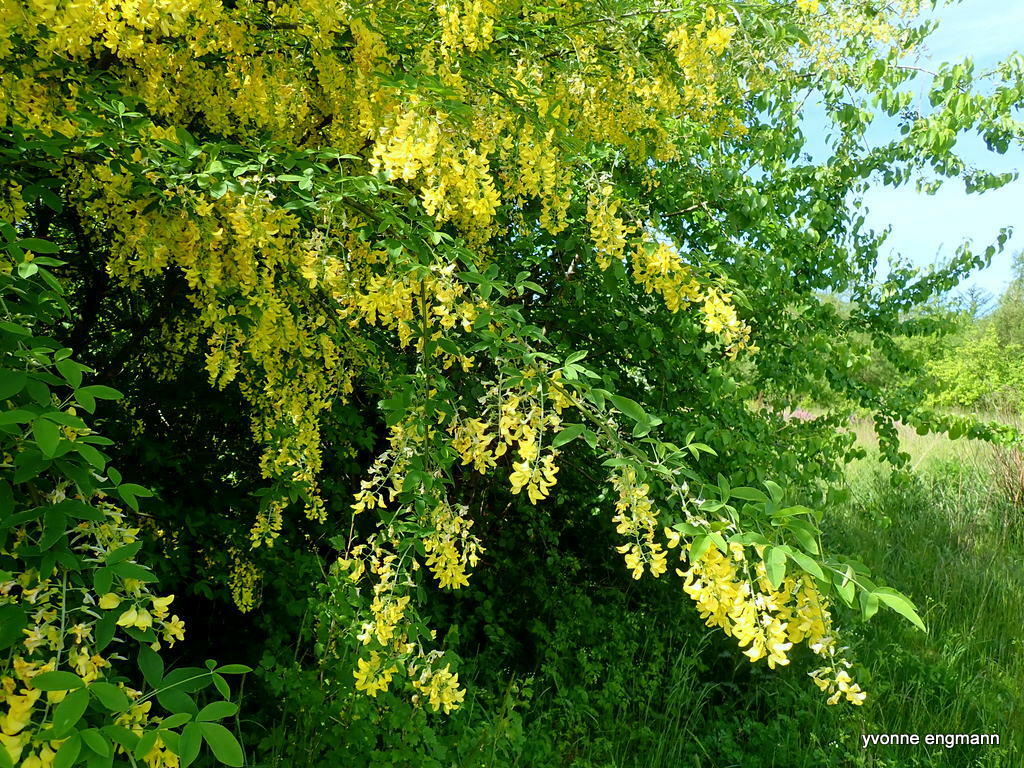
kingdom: Plantae
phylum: Tracheophyta
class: Magnoliopsida
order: Fabales
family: Fabaceae
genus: Laburnum
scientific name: Laburnum anagyroides
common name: Laburnum
